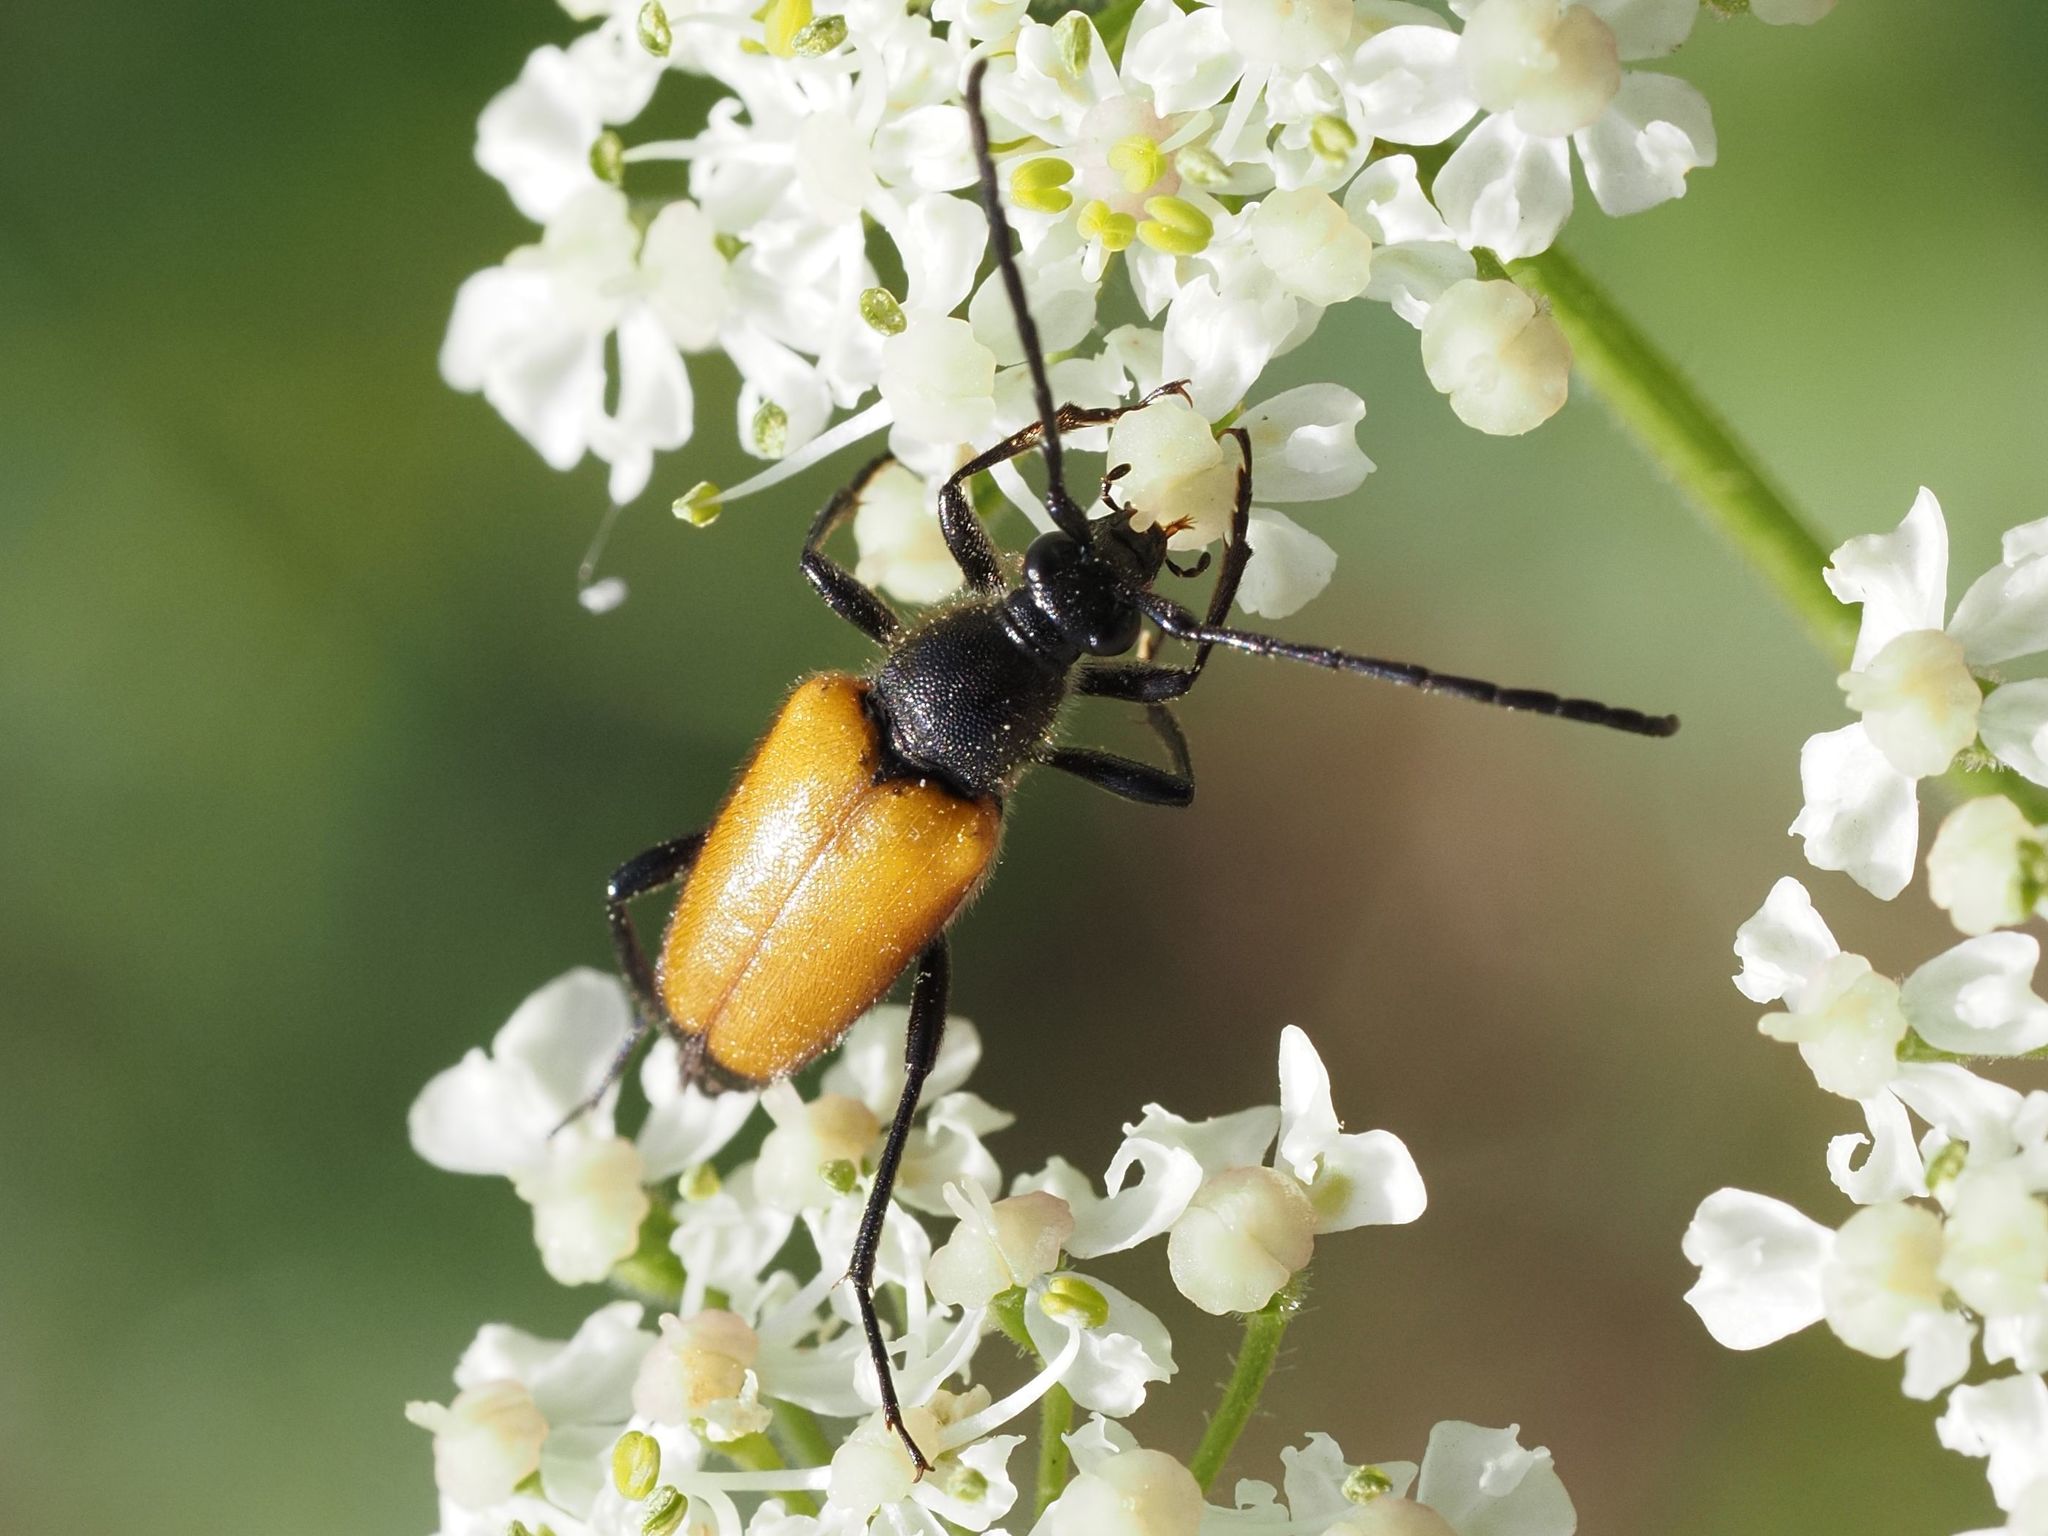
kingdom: Animalia
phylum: Arthropoda
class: Insecta
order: Coleoptera
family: Cerambycidae
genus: Paracorymbia
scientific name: Paracorymbia fulva
